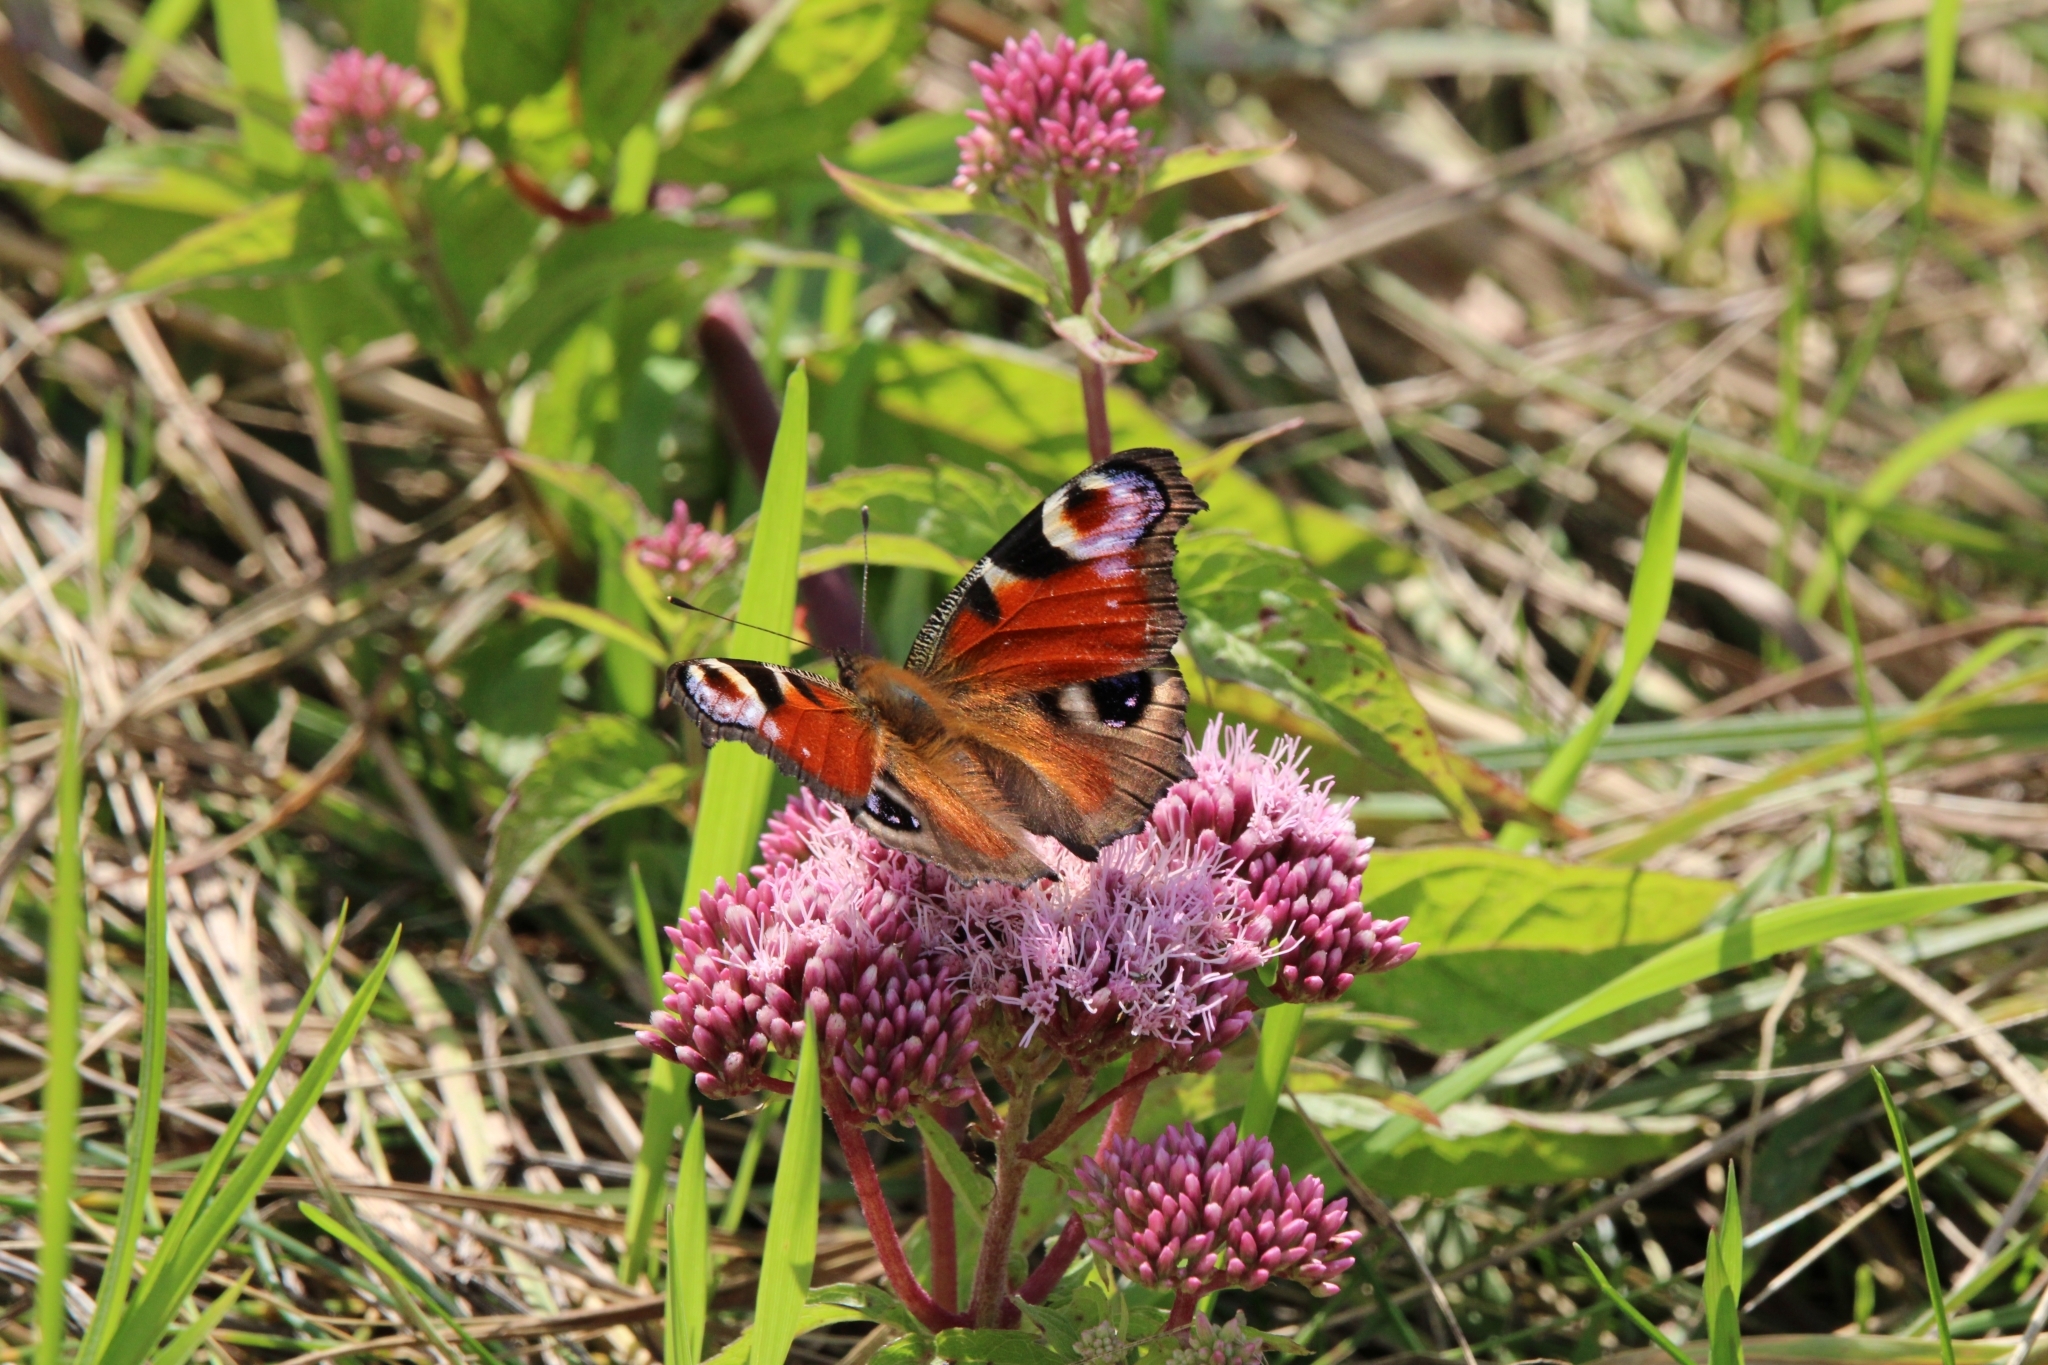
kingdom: Animalia
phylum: Arthropoda
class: Insecta
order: Lepidoptera
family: Nymphalidae
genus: Aglais
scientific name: Aglais io
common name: Peacock
